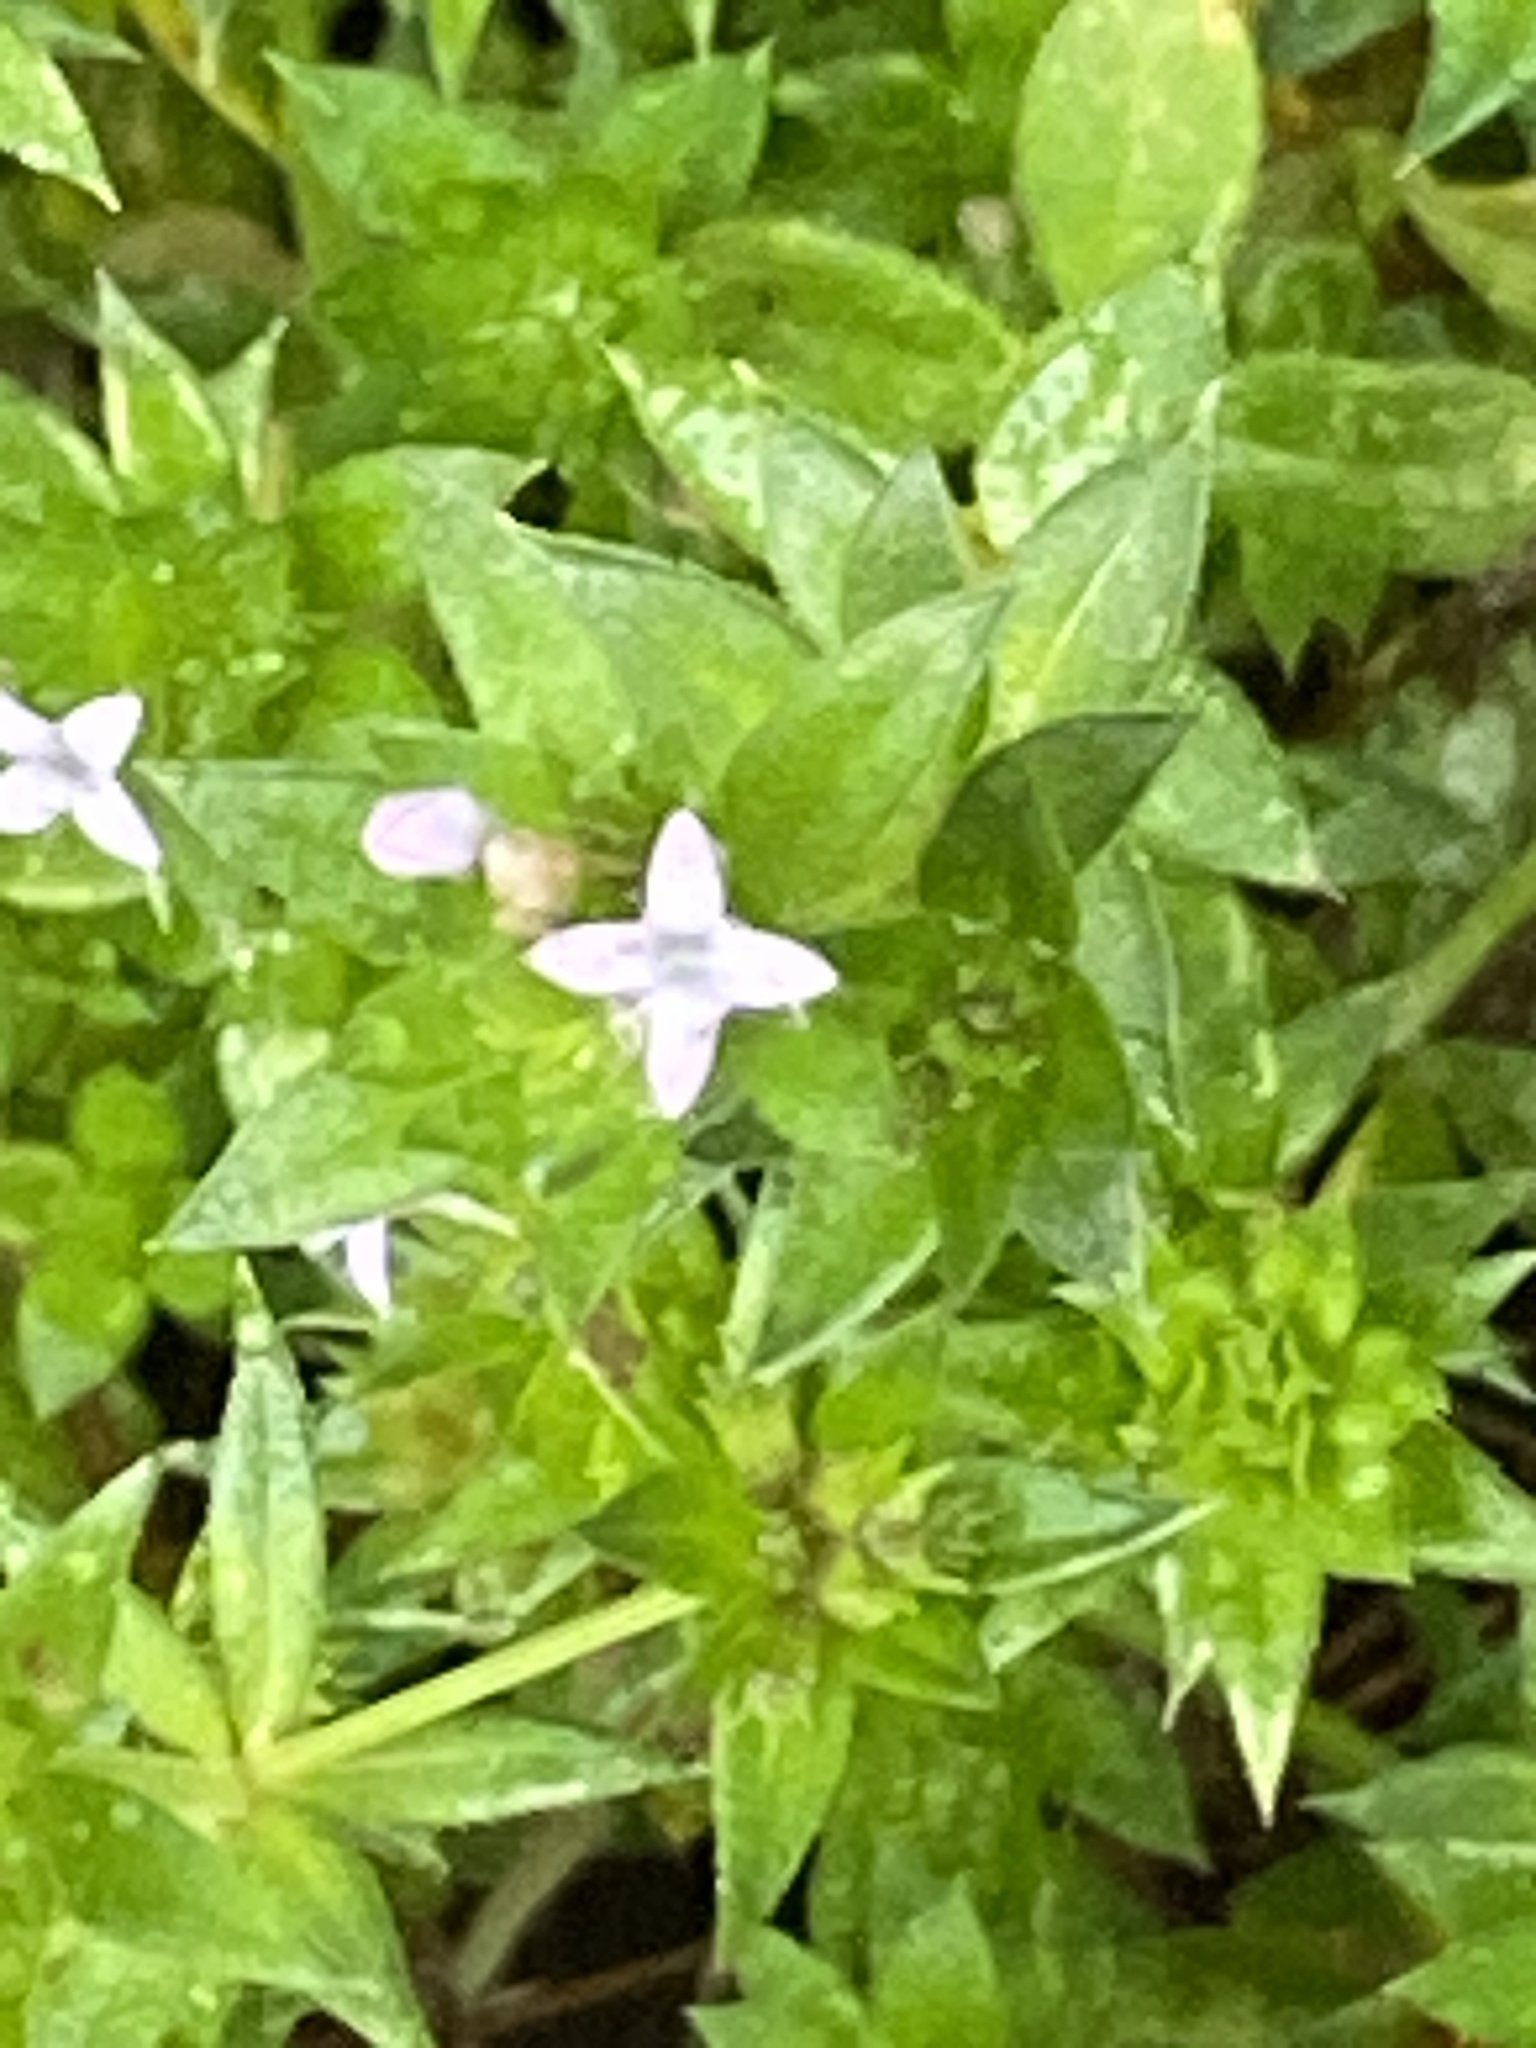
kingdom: Plantae
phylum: Tracheophyta
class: Magnoliopsida
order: Gentianales
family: Rubiaceae
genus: Sherardia
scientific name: Sherardia arvensis
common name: Field madder
